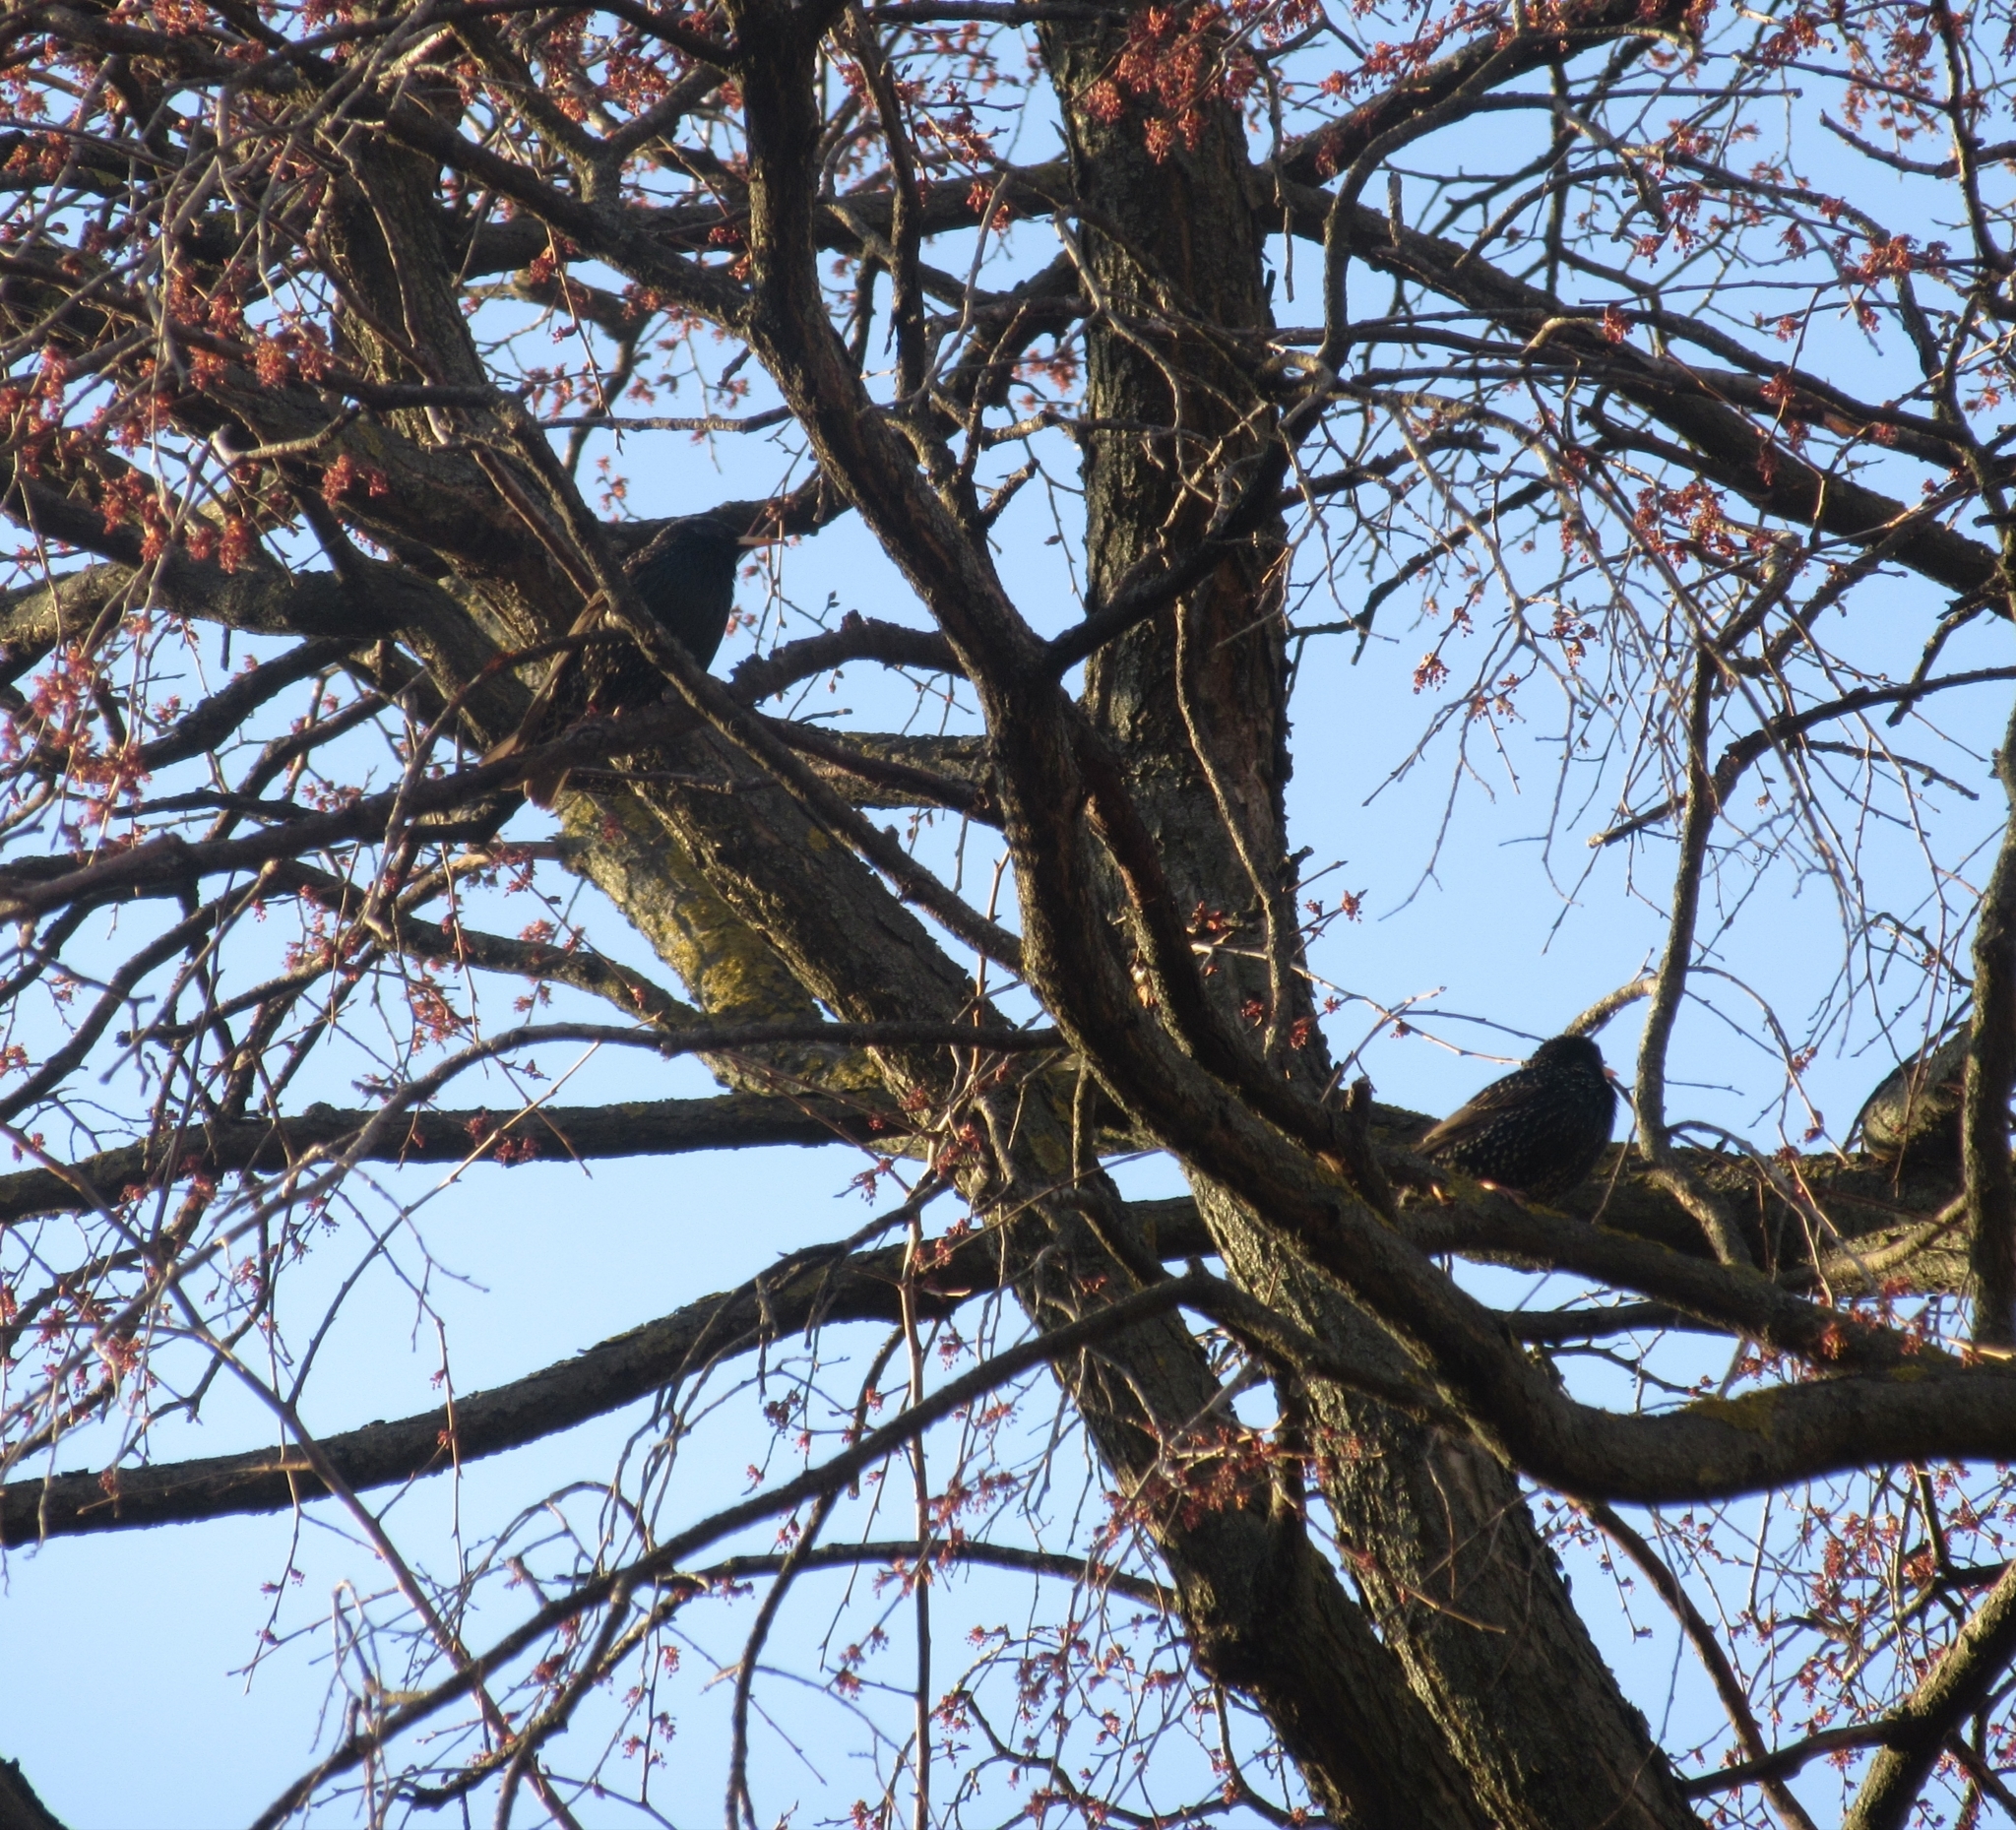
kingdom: Animalia
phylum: Chordata
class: Aves
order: Passeriformes
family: Sturnidae
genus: Sturnus
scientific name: Sturnus vulgaris
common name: Common starling
